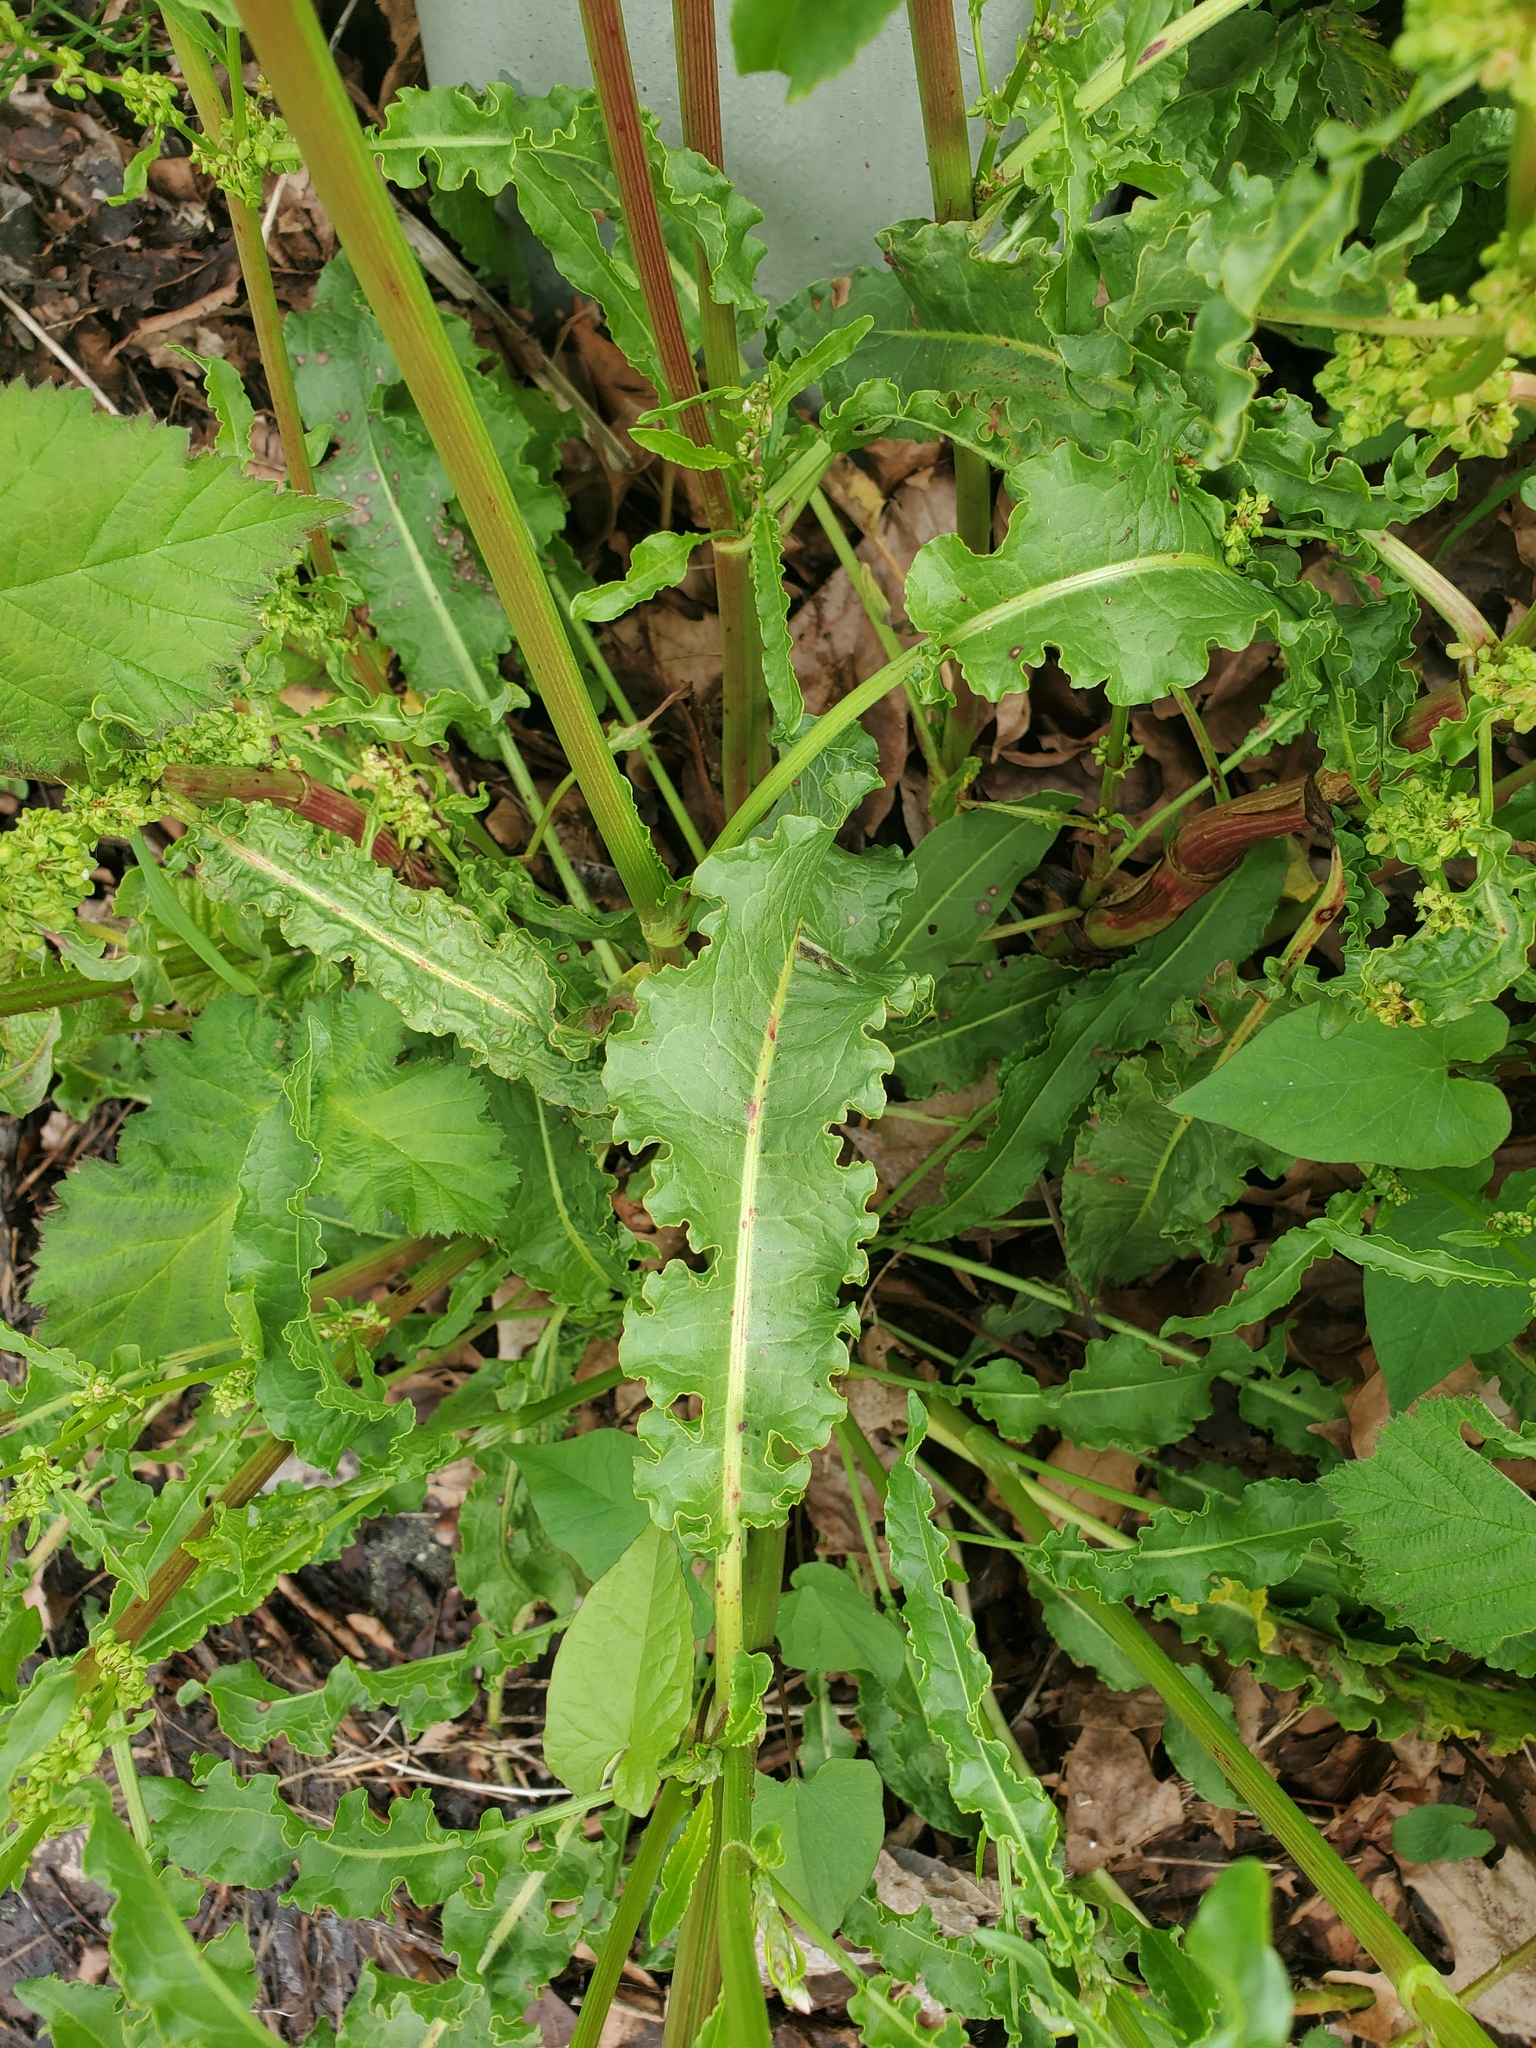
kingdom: Plantae
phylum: Tracheophyta
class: Magnoliopsida
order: Caryophyllales
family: Polygonaceae
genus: Rumex
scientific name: Rumex crispus
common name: Curled dock
